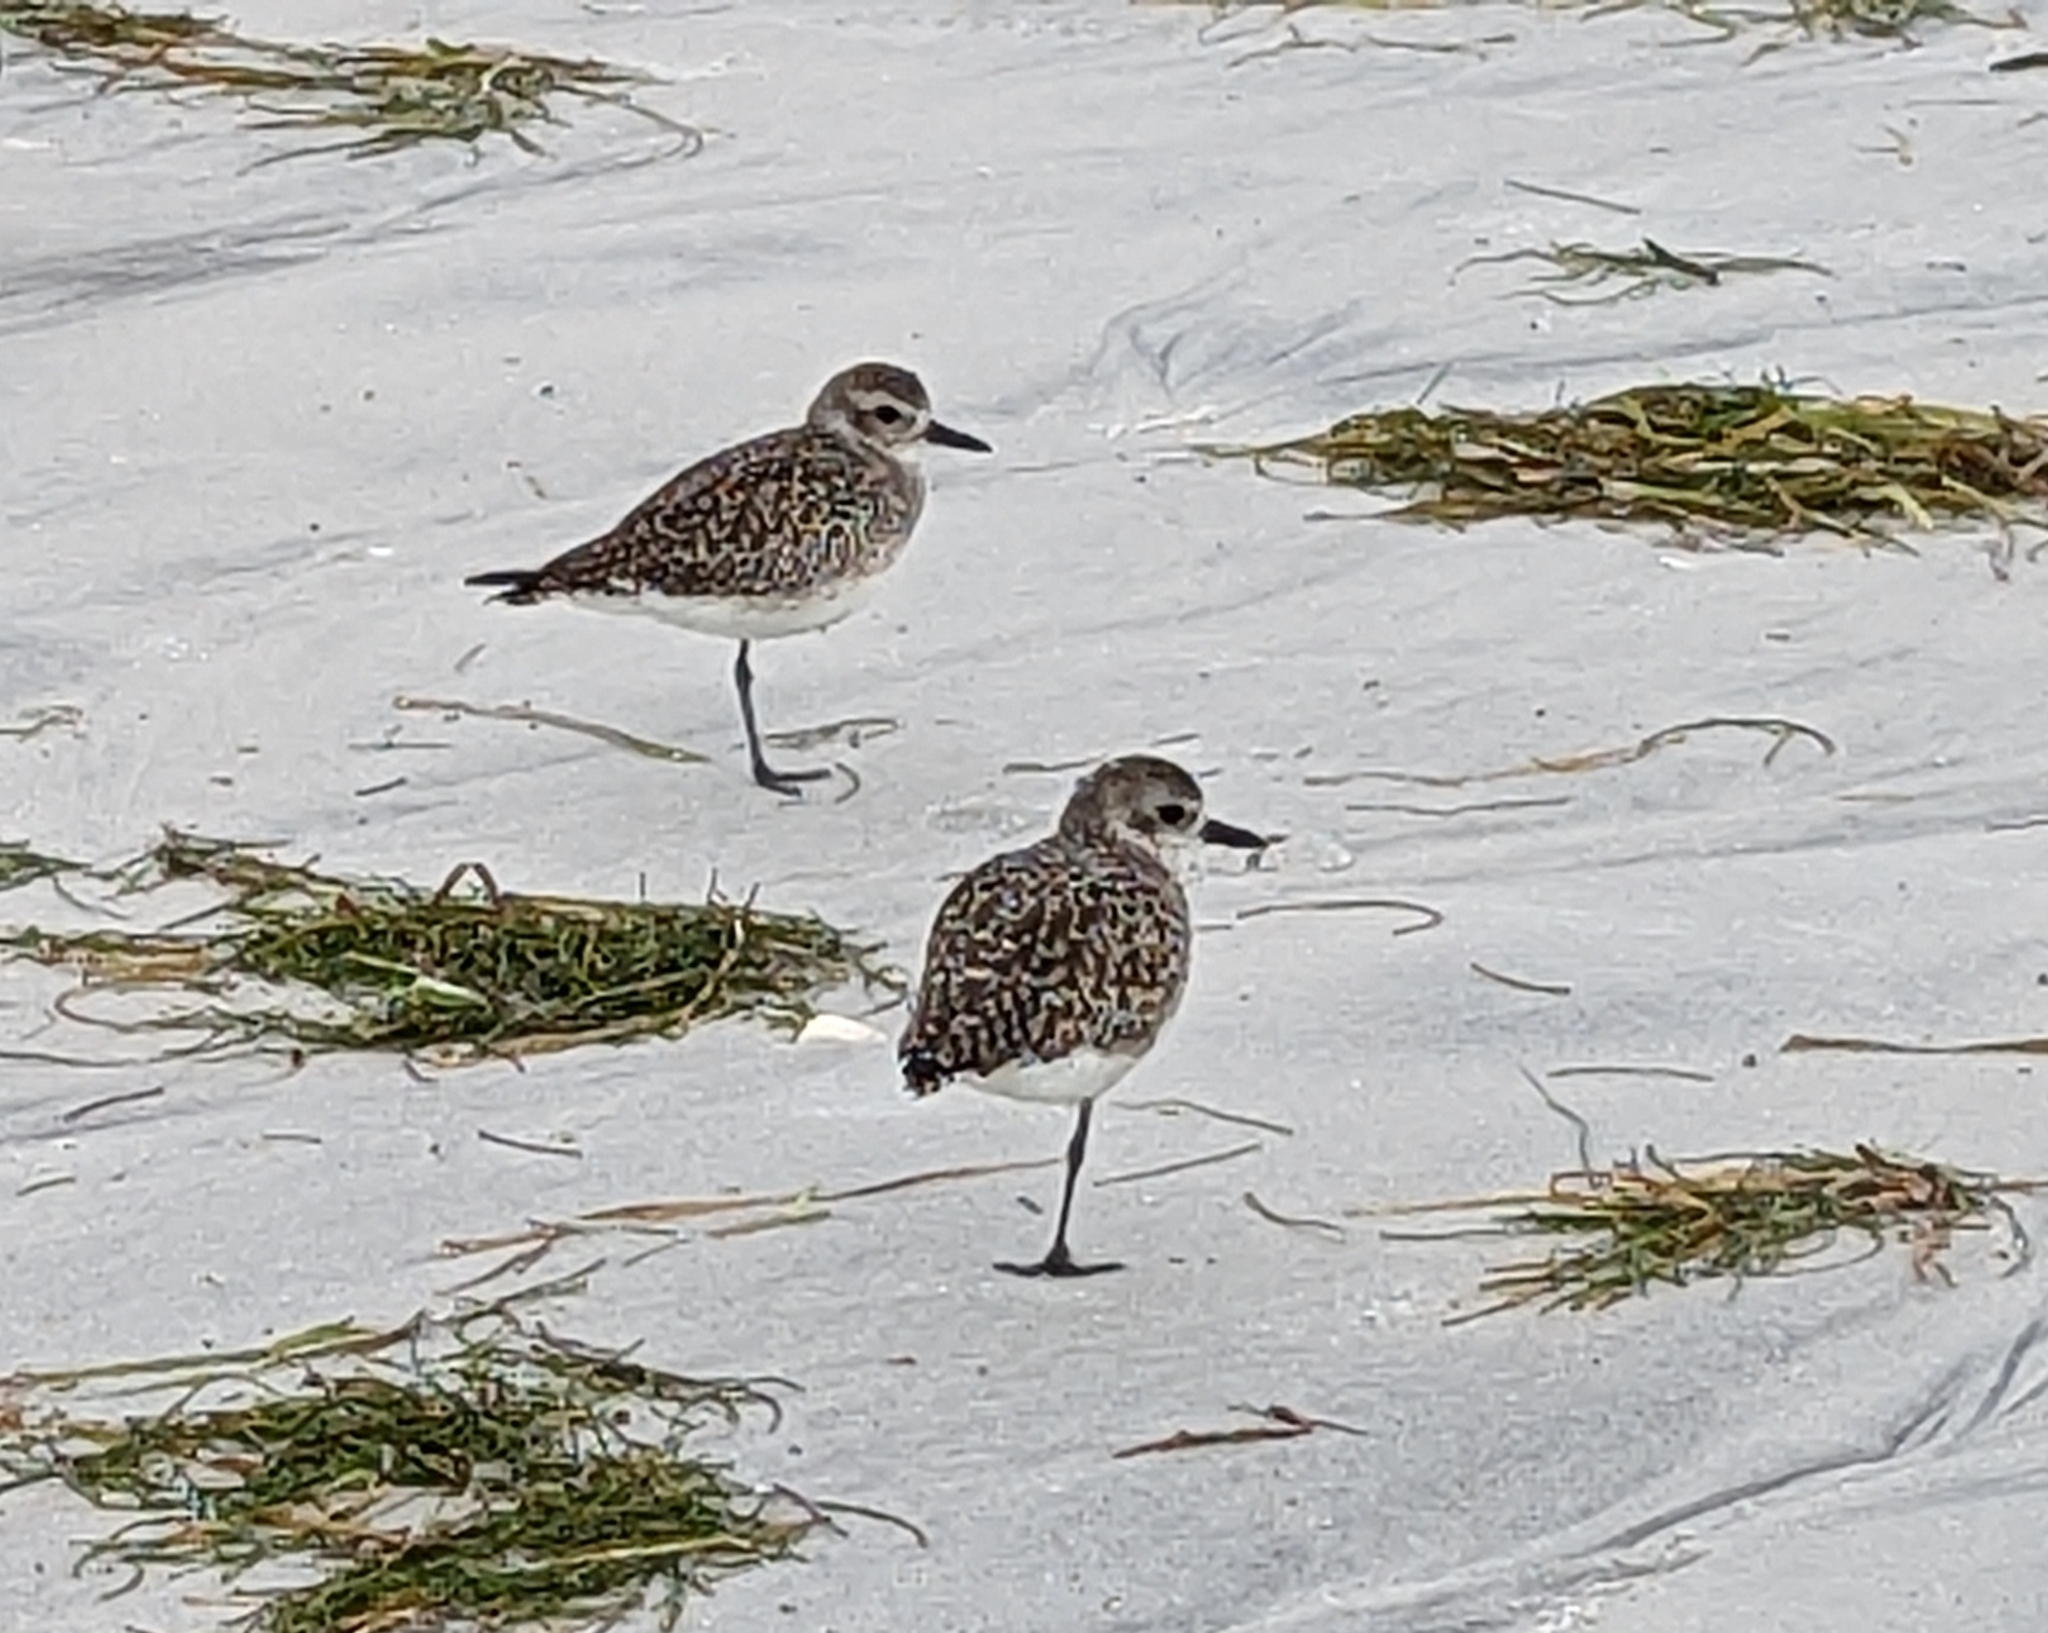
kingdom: Animalia
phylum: Chordata
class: Aves
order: Charadriiformes
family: Charadriidae
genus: Pluvialis
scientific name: Pluvialis squatarola
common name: Grey plover
